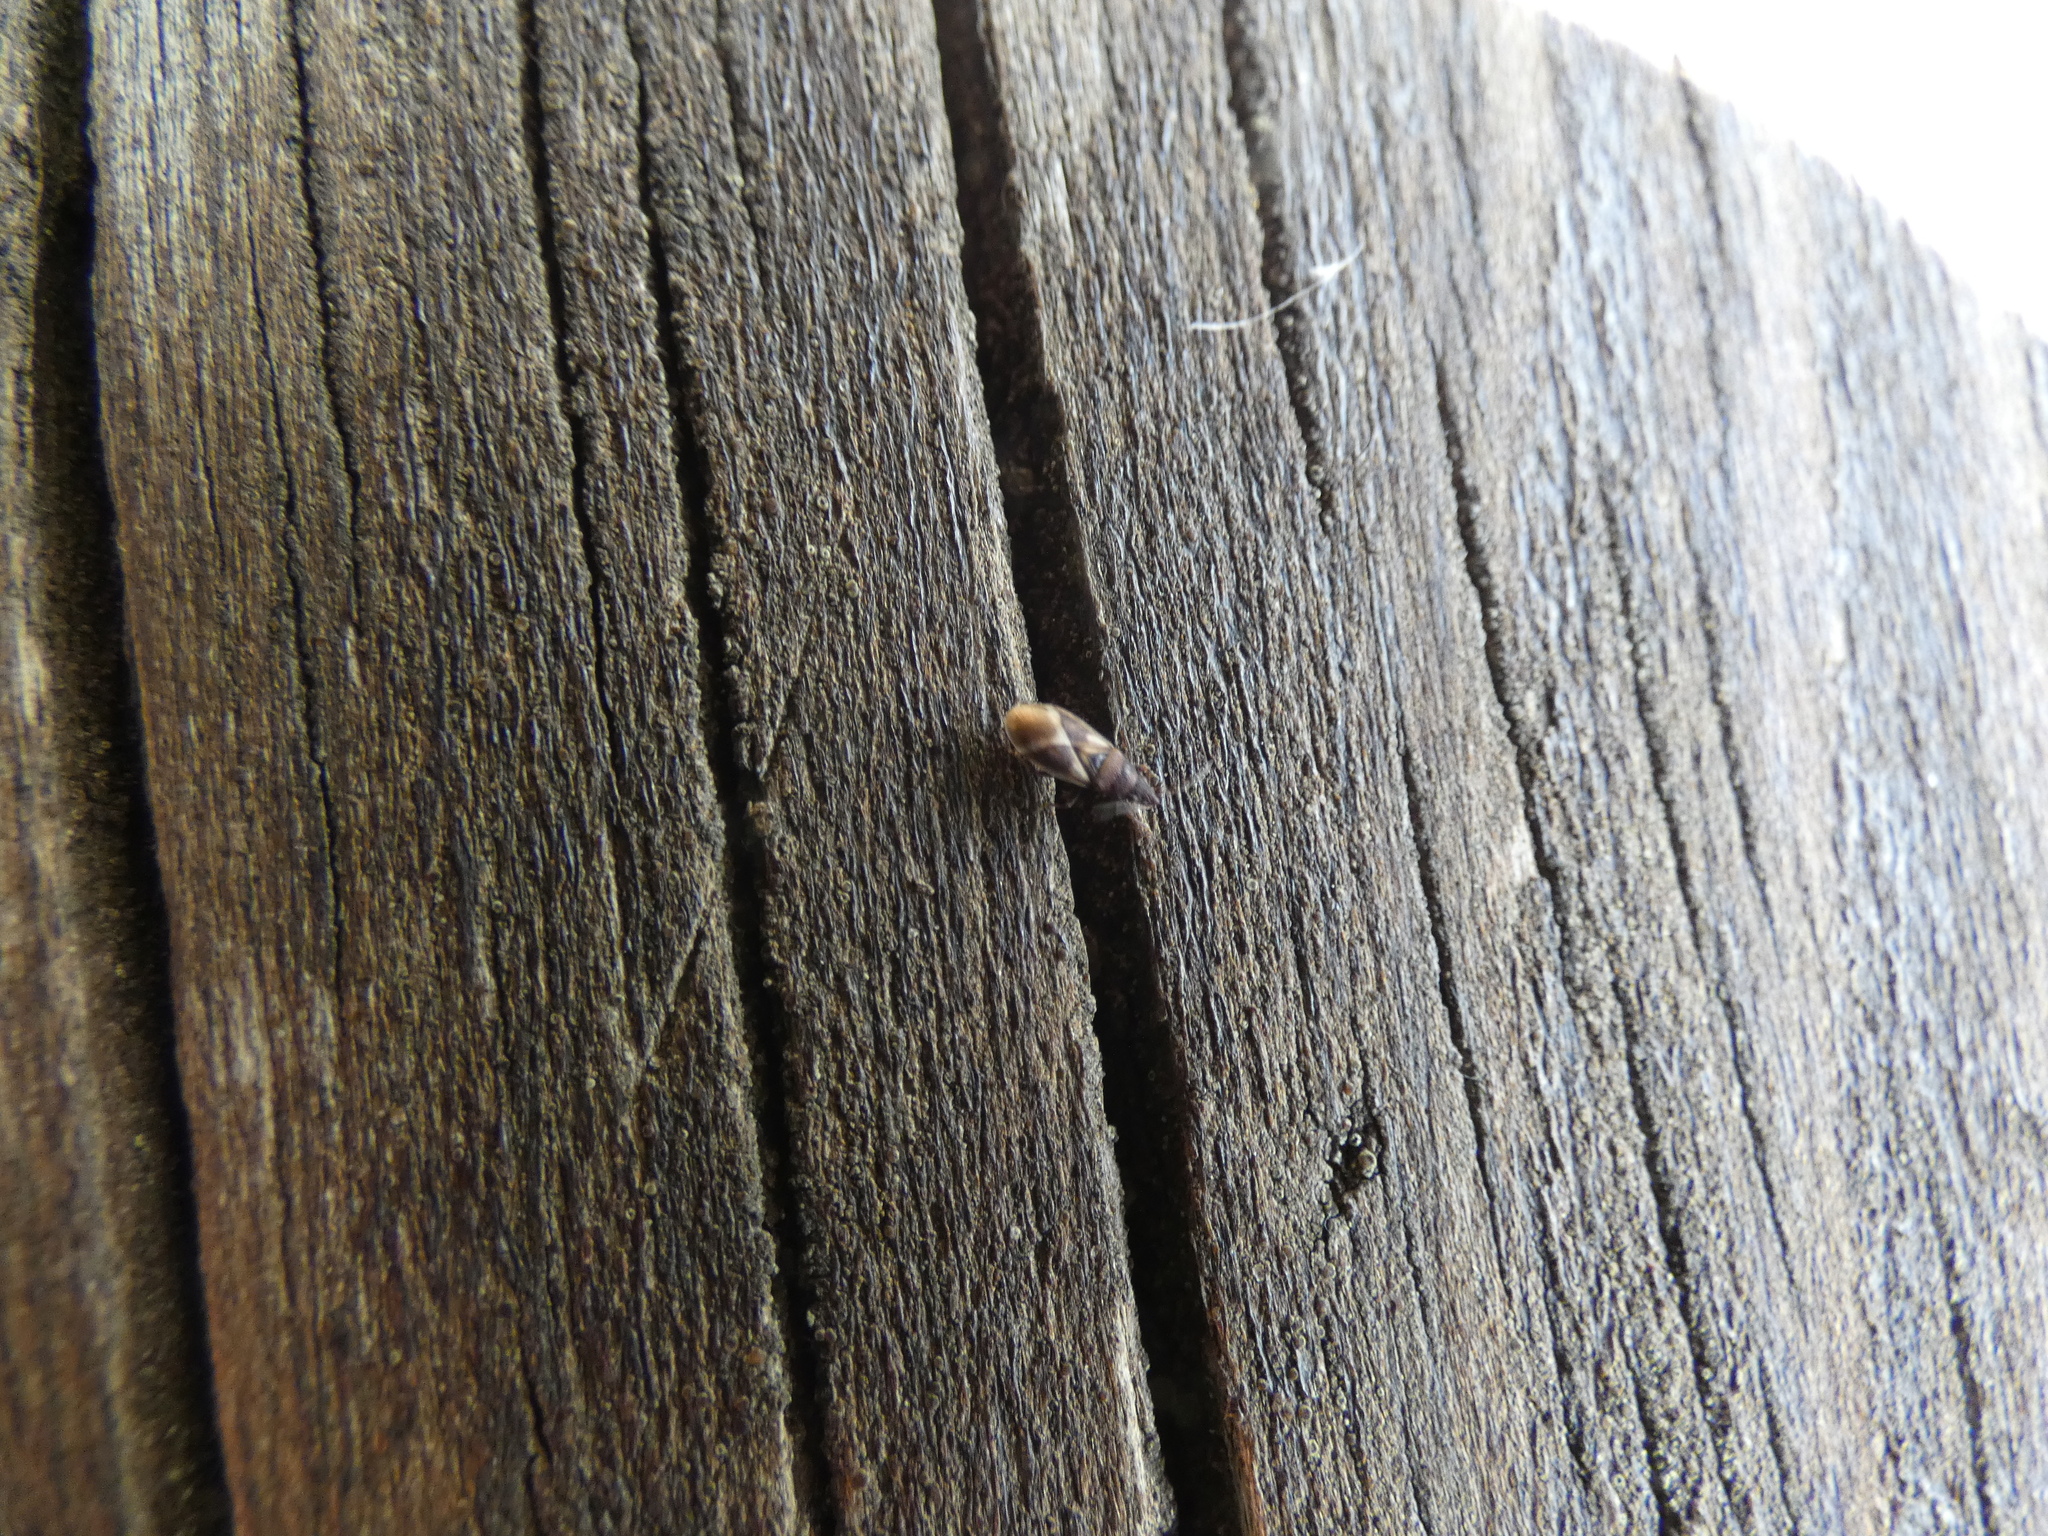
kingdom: Animalia
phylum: Arthropoda
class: Insecta
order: Hemiptera
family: Oxycarenidae
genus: Oxycarenus
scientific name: Oxycarenus modestus
